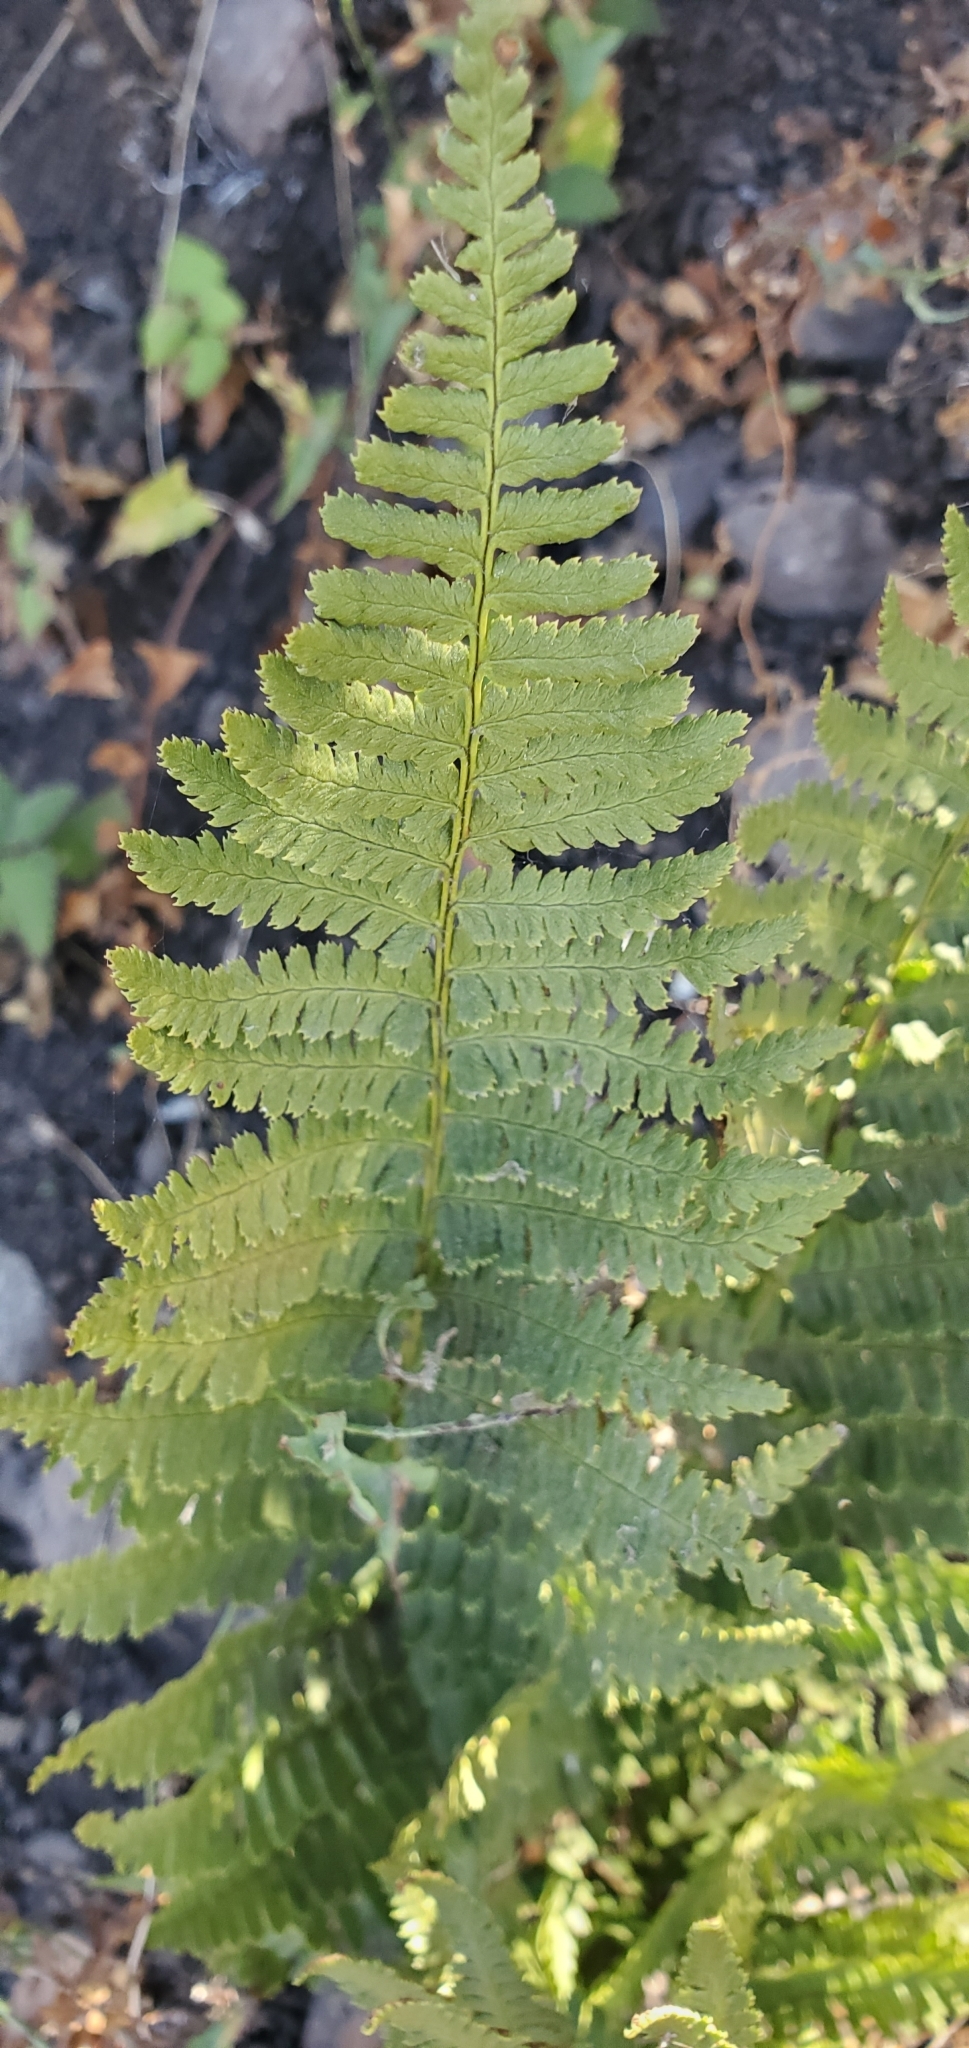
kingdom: Plantae
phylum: Tracheophyta
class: Polypodiopsida
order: Polypodiales
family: Dryopteridaceae
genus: Dryopteris
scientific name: Dryopteris arguta
